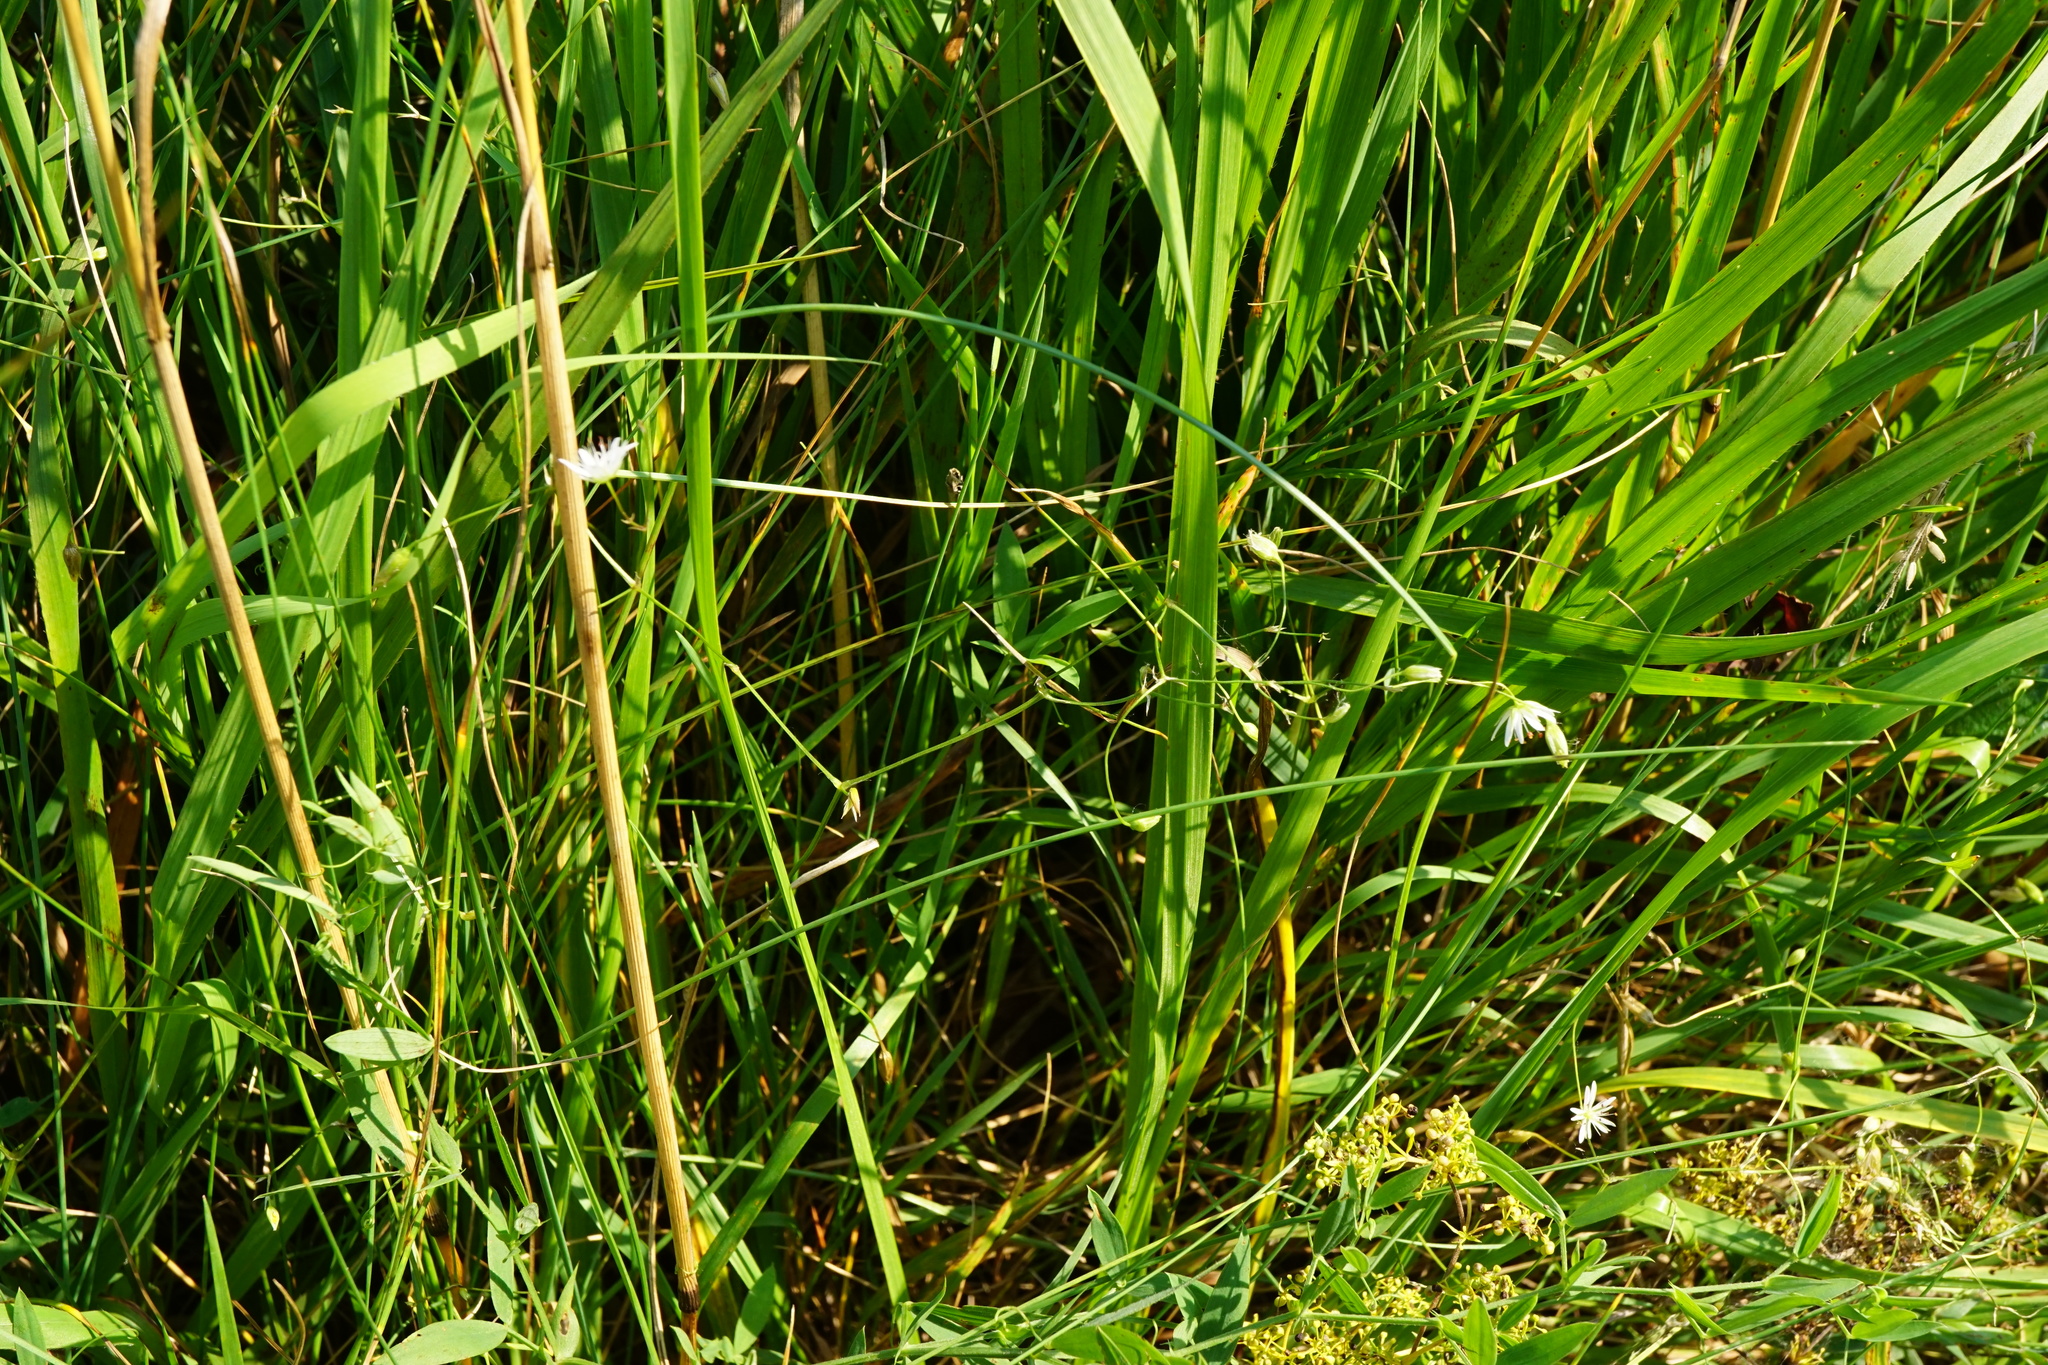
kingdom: Plantae
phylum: Tracheophyta
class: Magnoliopsida
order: Caryophyllales
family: Caryophyllaceae
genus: Stellaria
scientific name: Stellaria graminea
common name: Grass-like starwort
